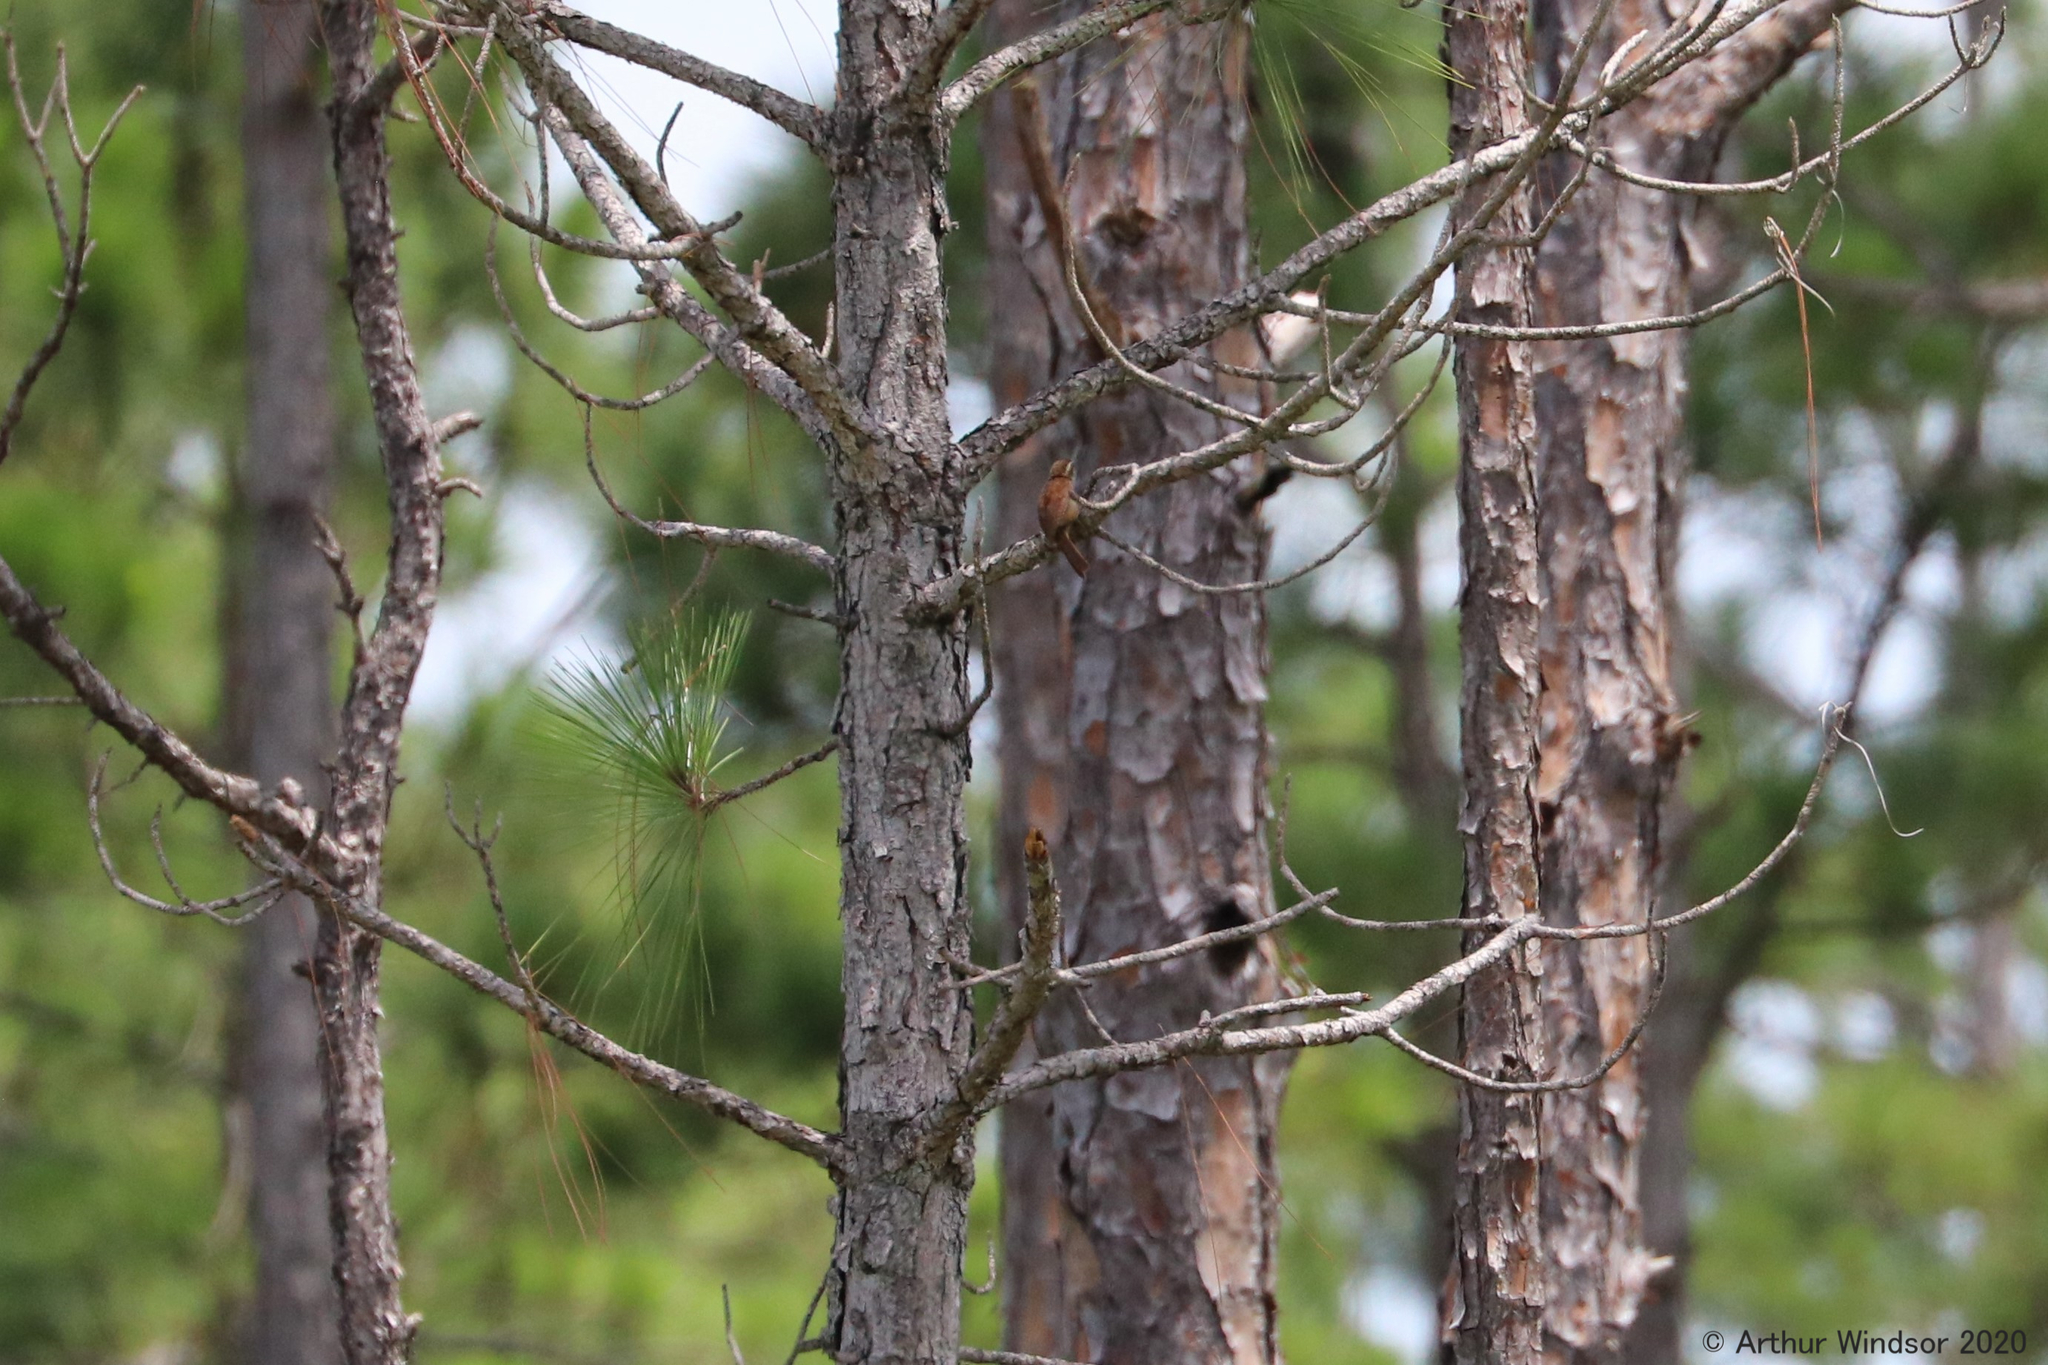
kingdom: Animalia
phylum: Chordata
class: Aves
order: Passeriformes
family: Troglodytidae
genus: Thryothorus
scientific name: Thryothorus ludovicianus
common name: Carolina wren
